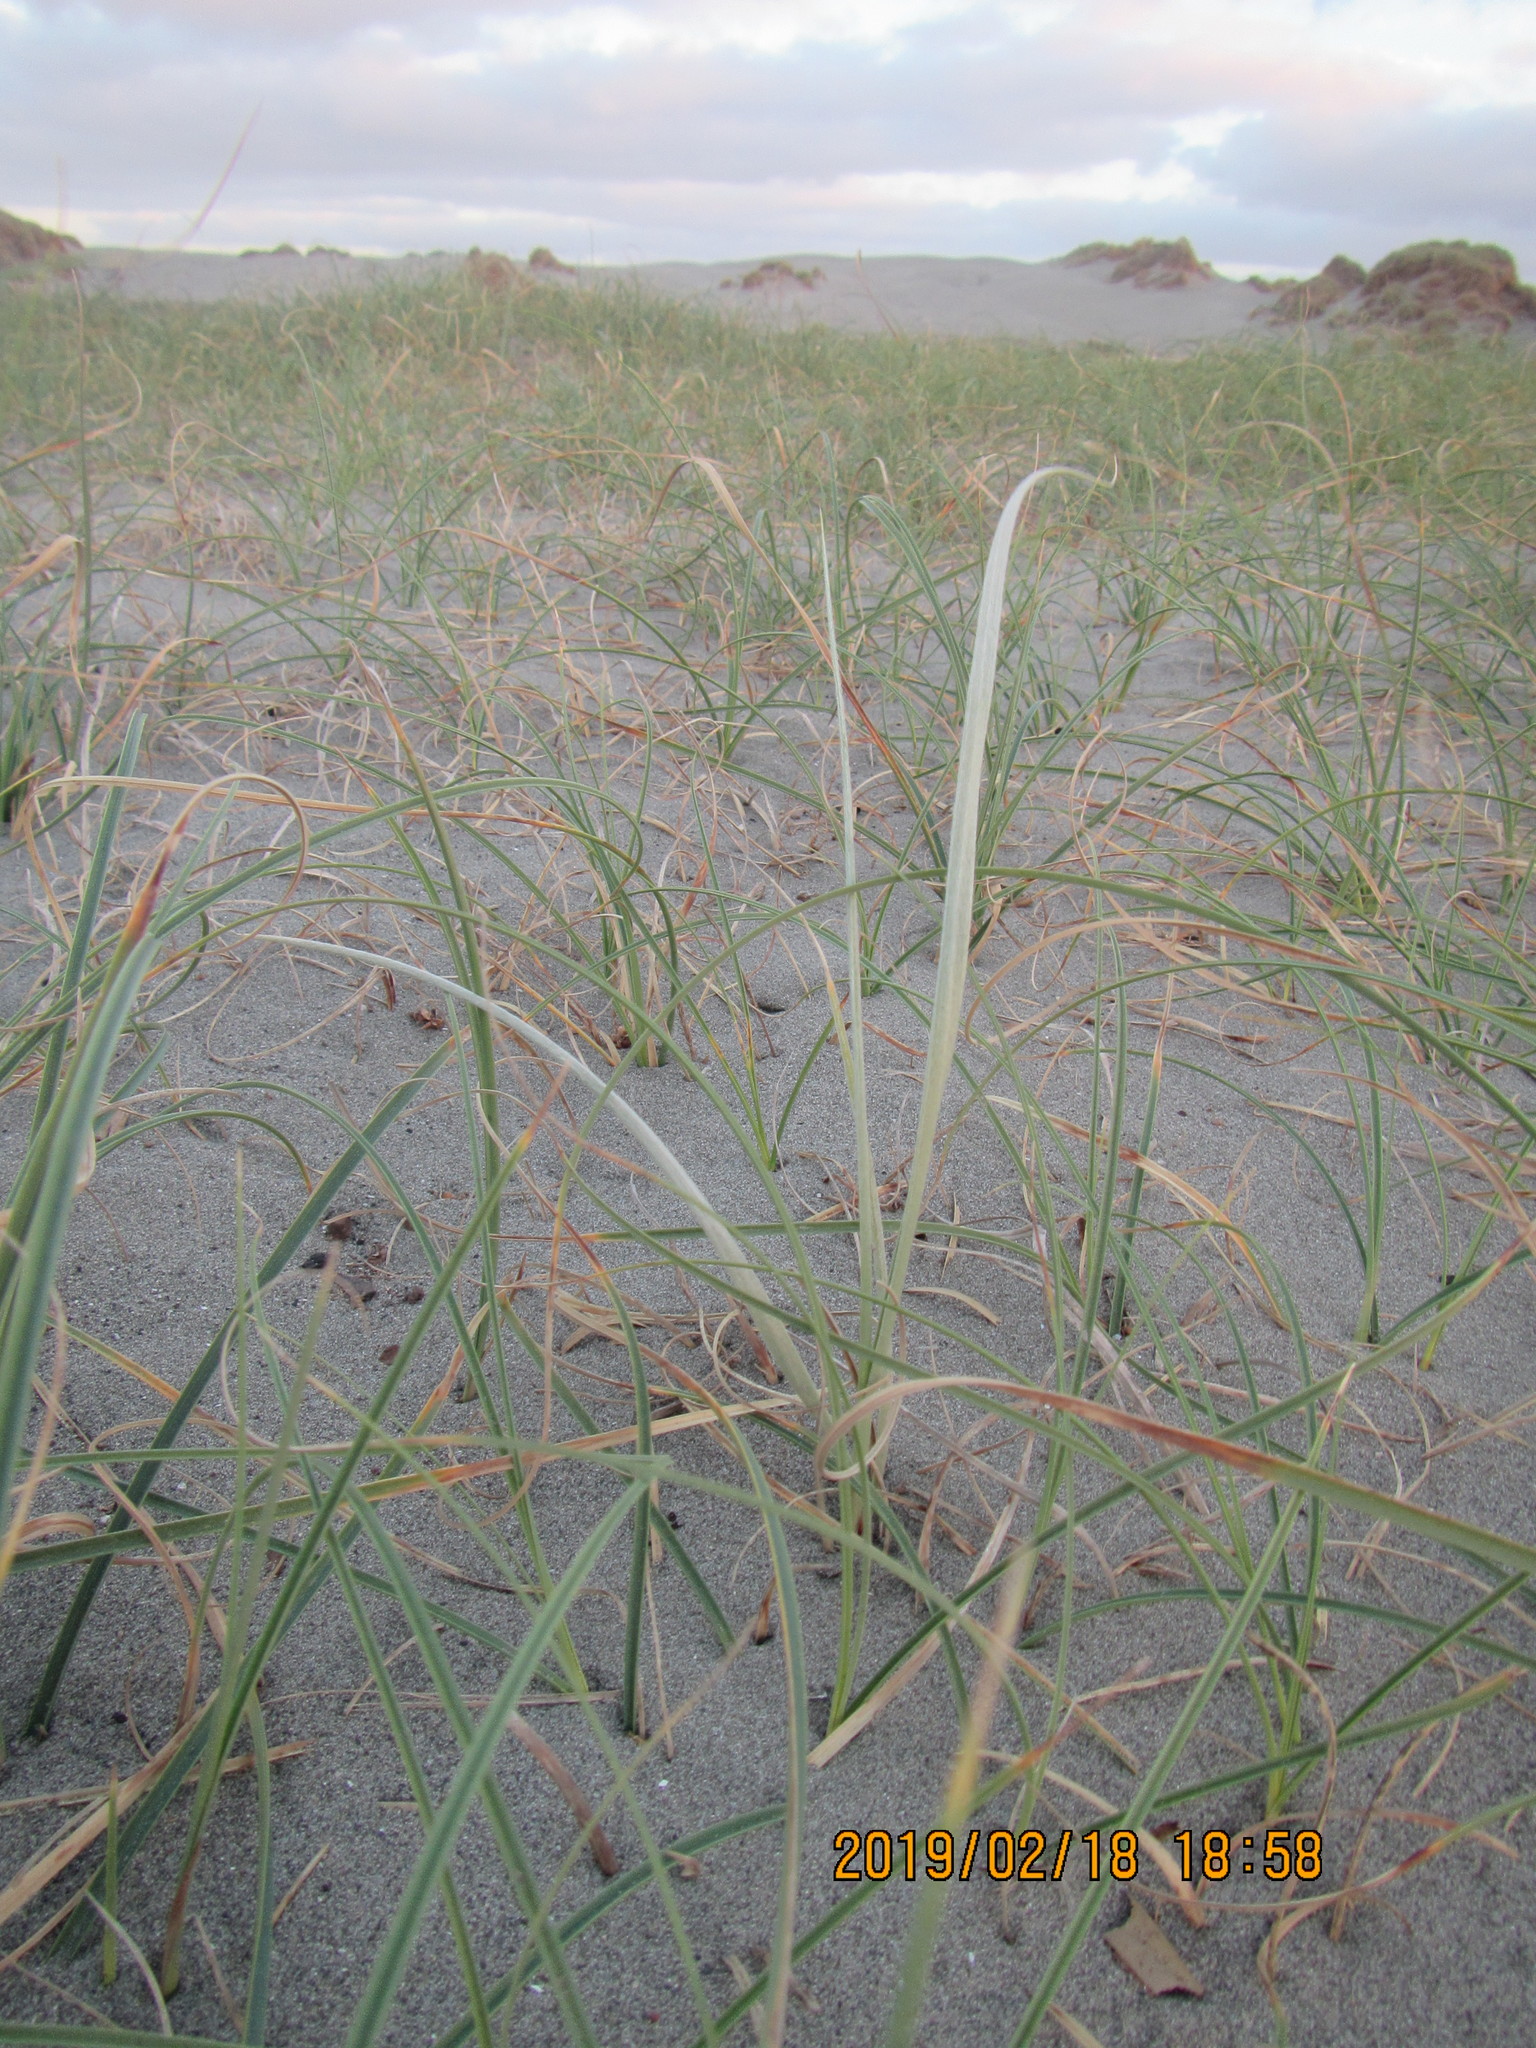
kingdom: Plantae
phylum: Tracheophyta
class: Liliopsida
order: Poales
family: Poaceae
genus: Spinifex
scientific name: Spinifex sericeus
